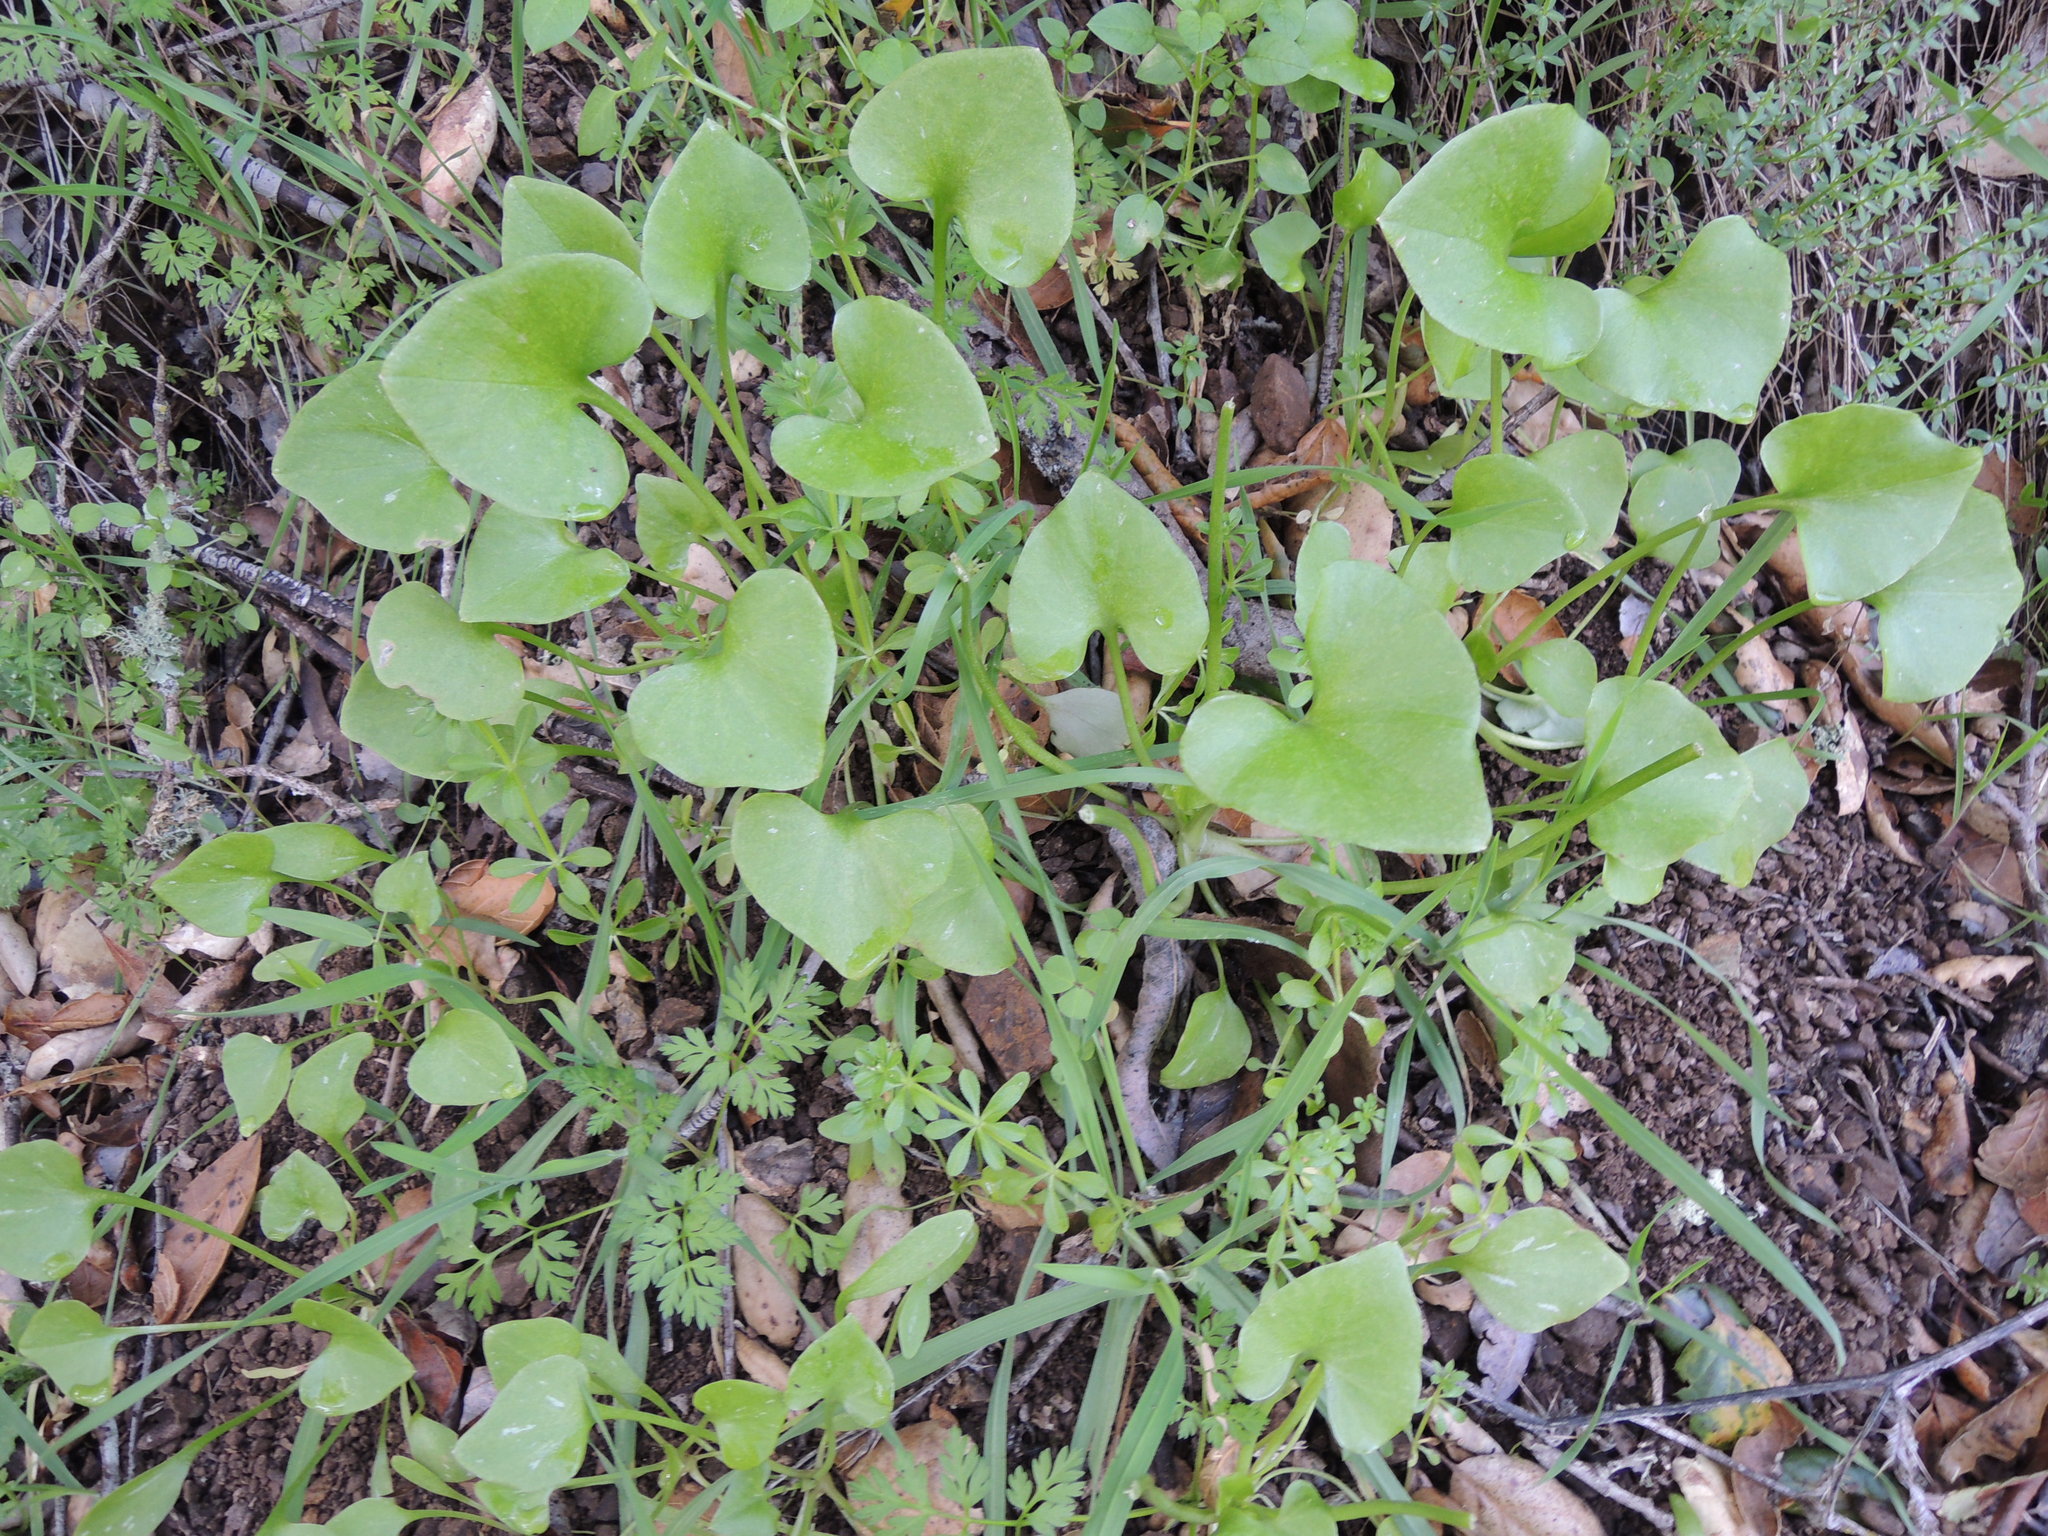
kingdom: Plantae
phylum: Tracheophyta
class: Magnoliopsida
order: Caryophyllales
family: Montiaceae
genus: Claytonia
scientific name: Claytonia perfoliata
